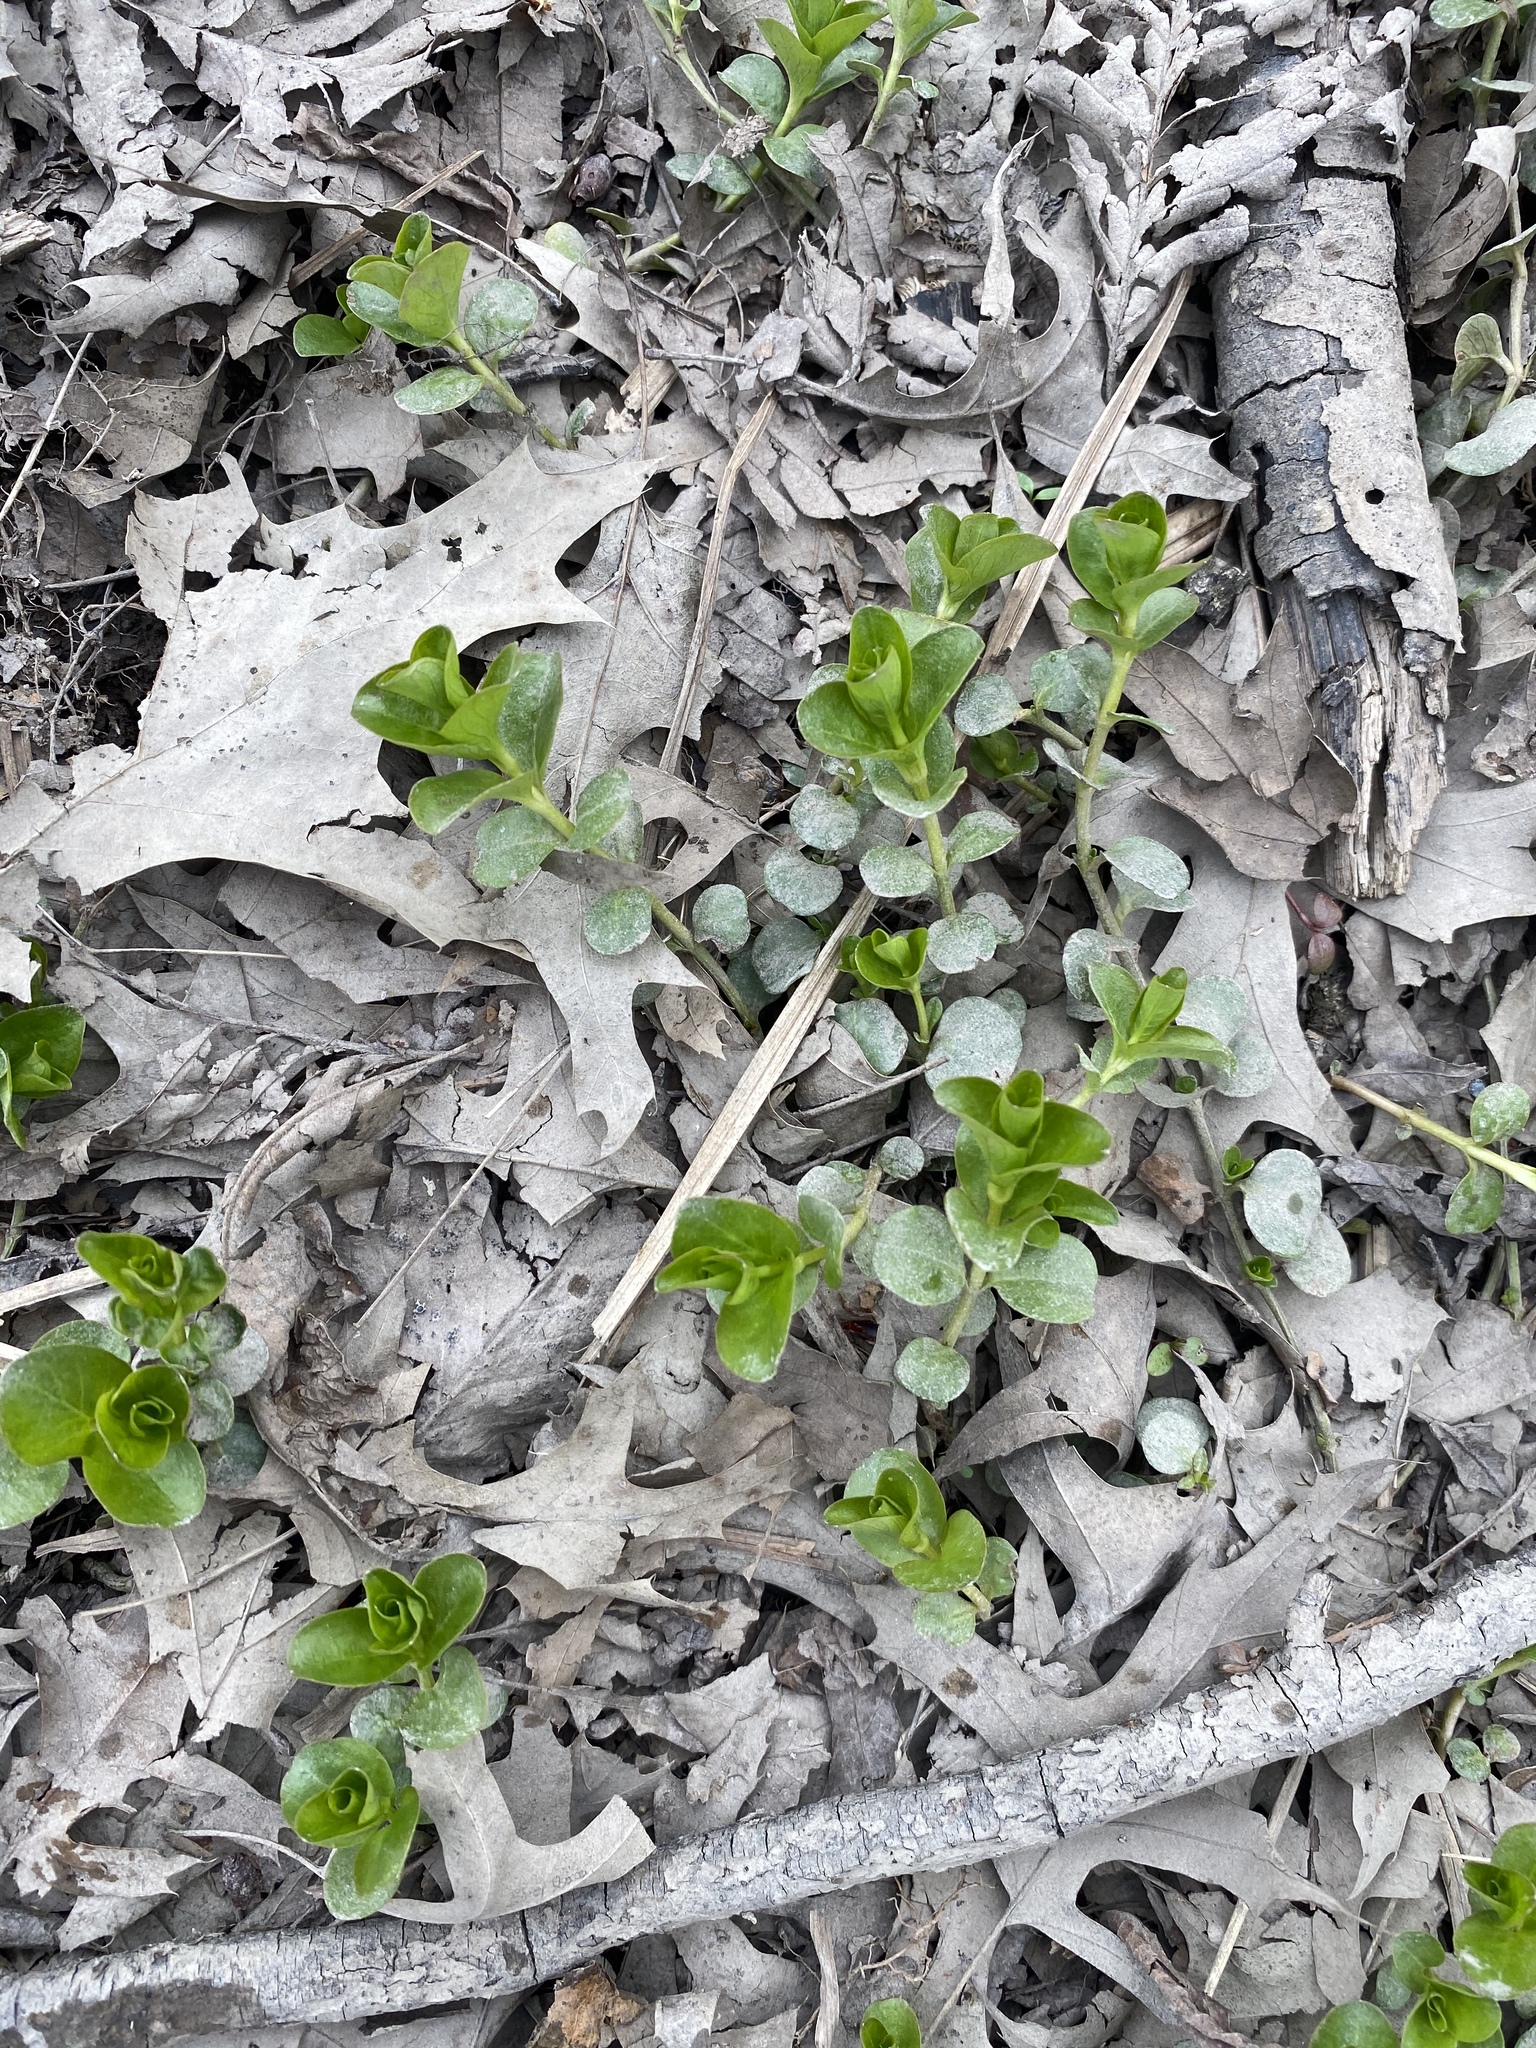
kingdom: Plantae
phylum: Tracheophyta
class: Magnoliopsida
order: Ericales
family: Primulaceae
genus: Lysimachia
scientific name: Lysimachia nummularia
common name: Moneywort
